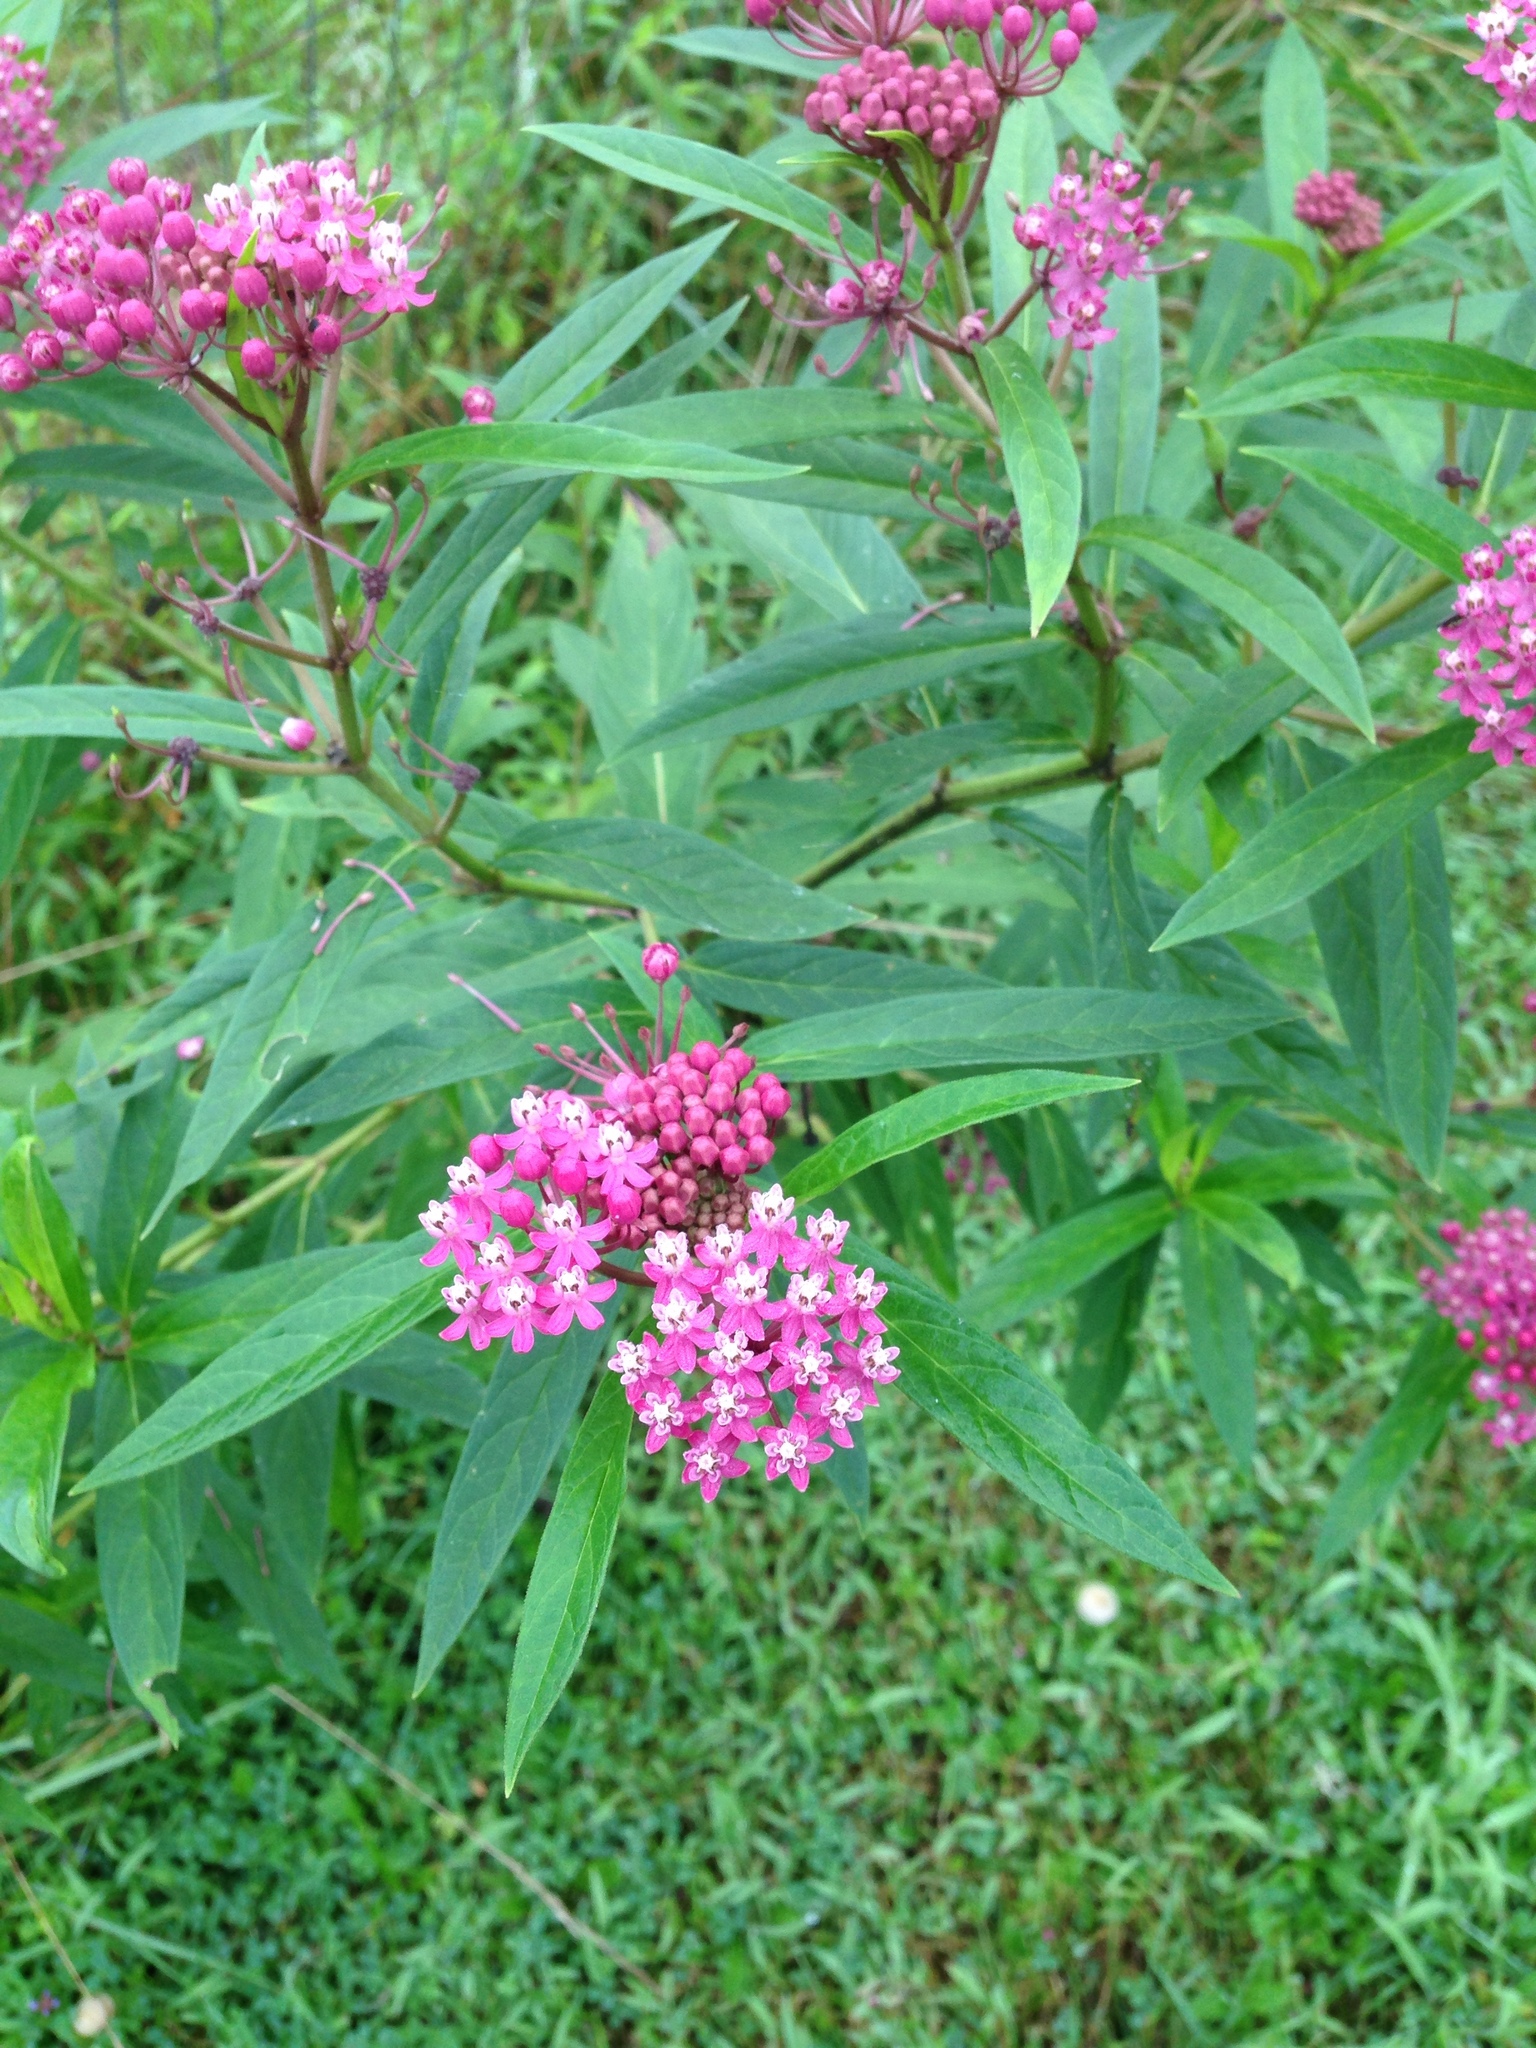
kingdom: Plantae
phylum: Tracheophyta
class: Magnoliopsida
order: Gentianales
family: Apocynaceae
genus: Asclepias
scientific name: Asclepias incarnata
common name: Swamp milkweed
